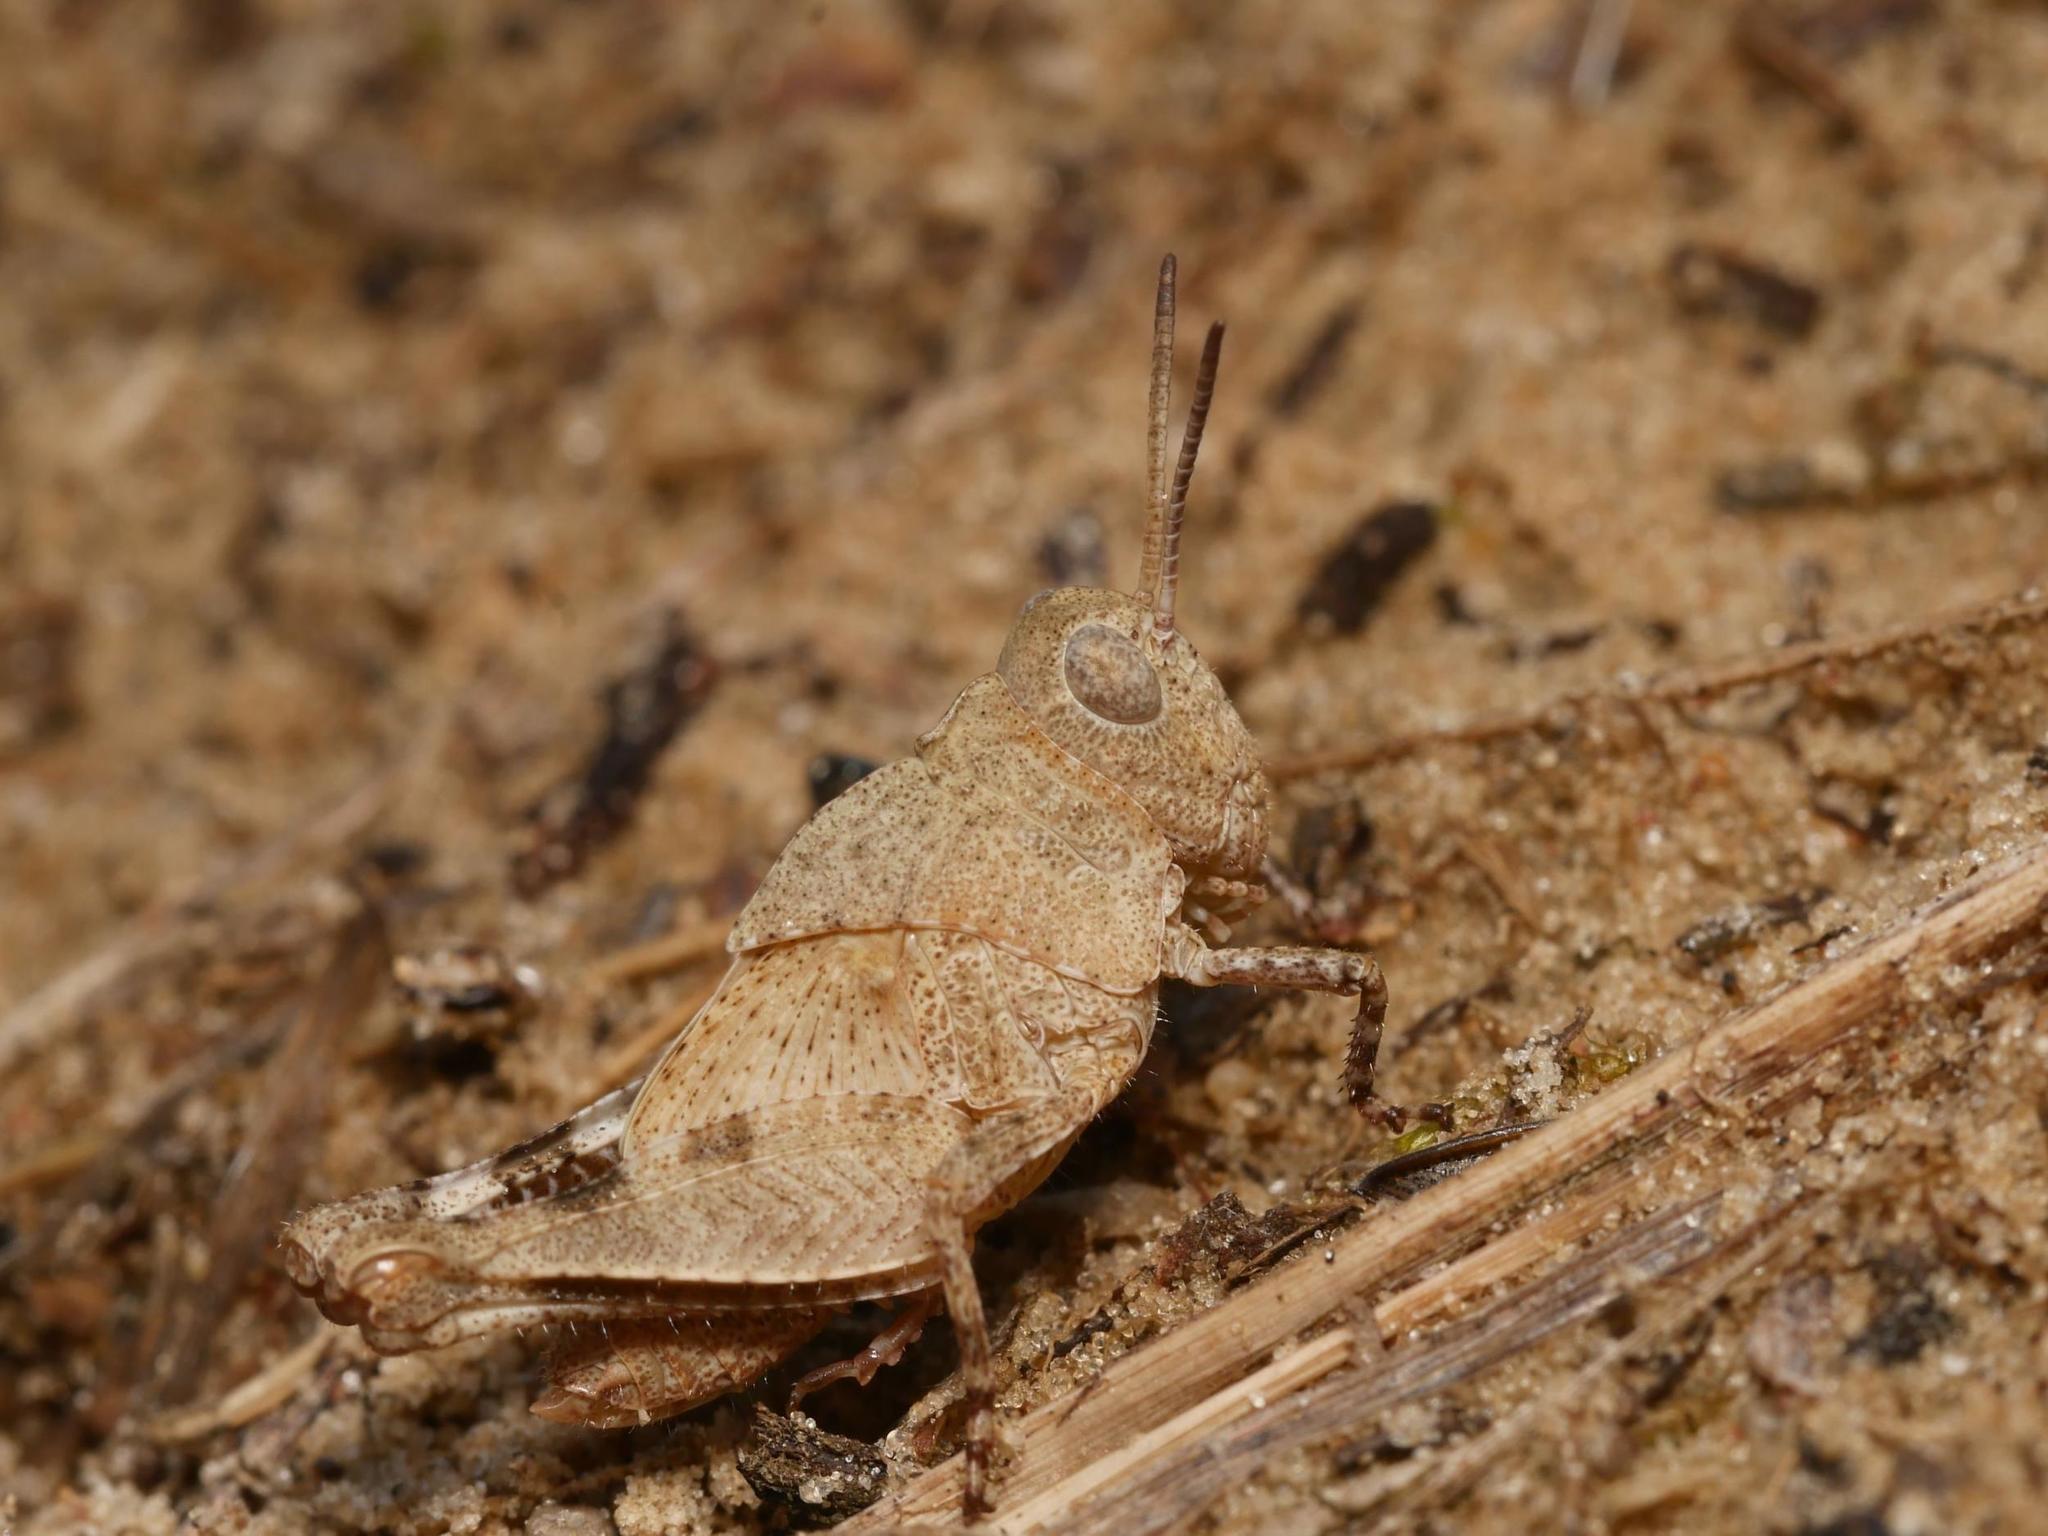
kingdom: Animalia
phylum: Arthropoda
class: Insecta
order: Orthoptera
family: Acrididae
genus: Oedipoda
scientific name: Oedipoda caerulescens
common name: Blue-winged grasshopper
